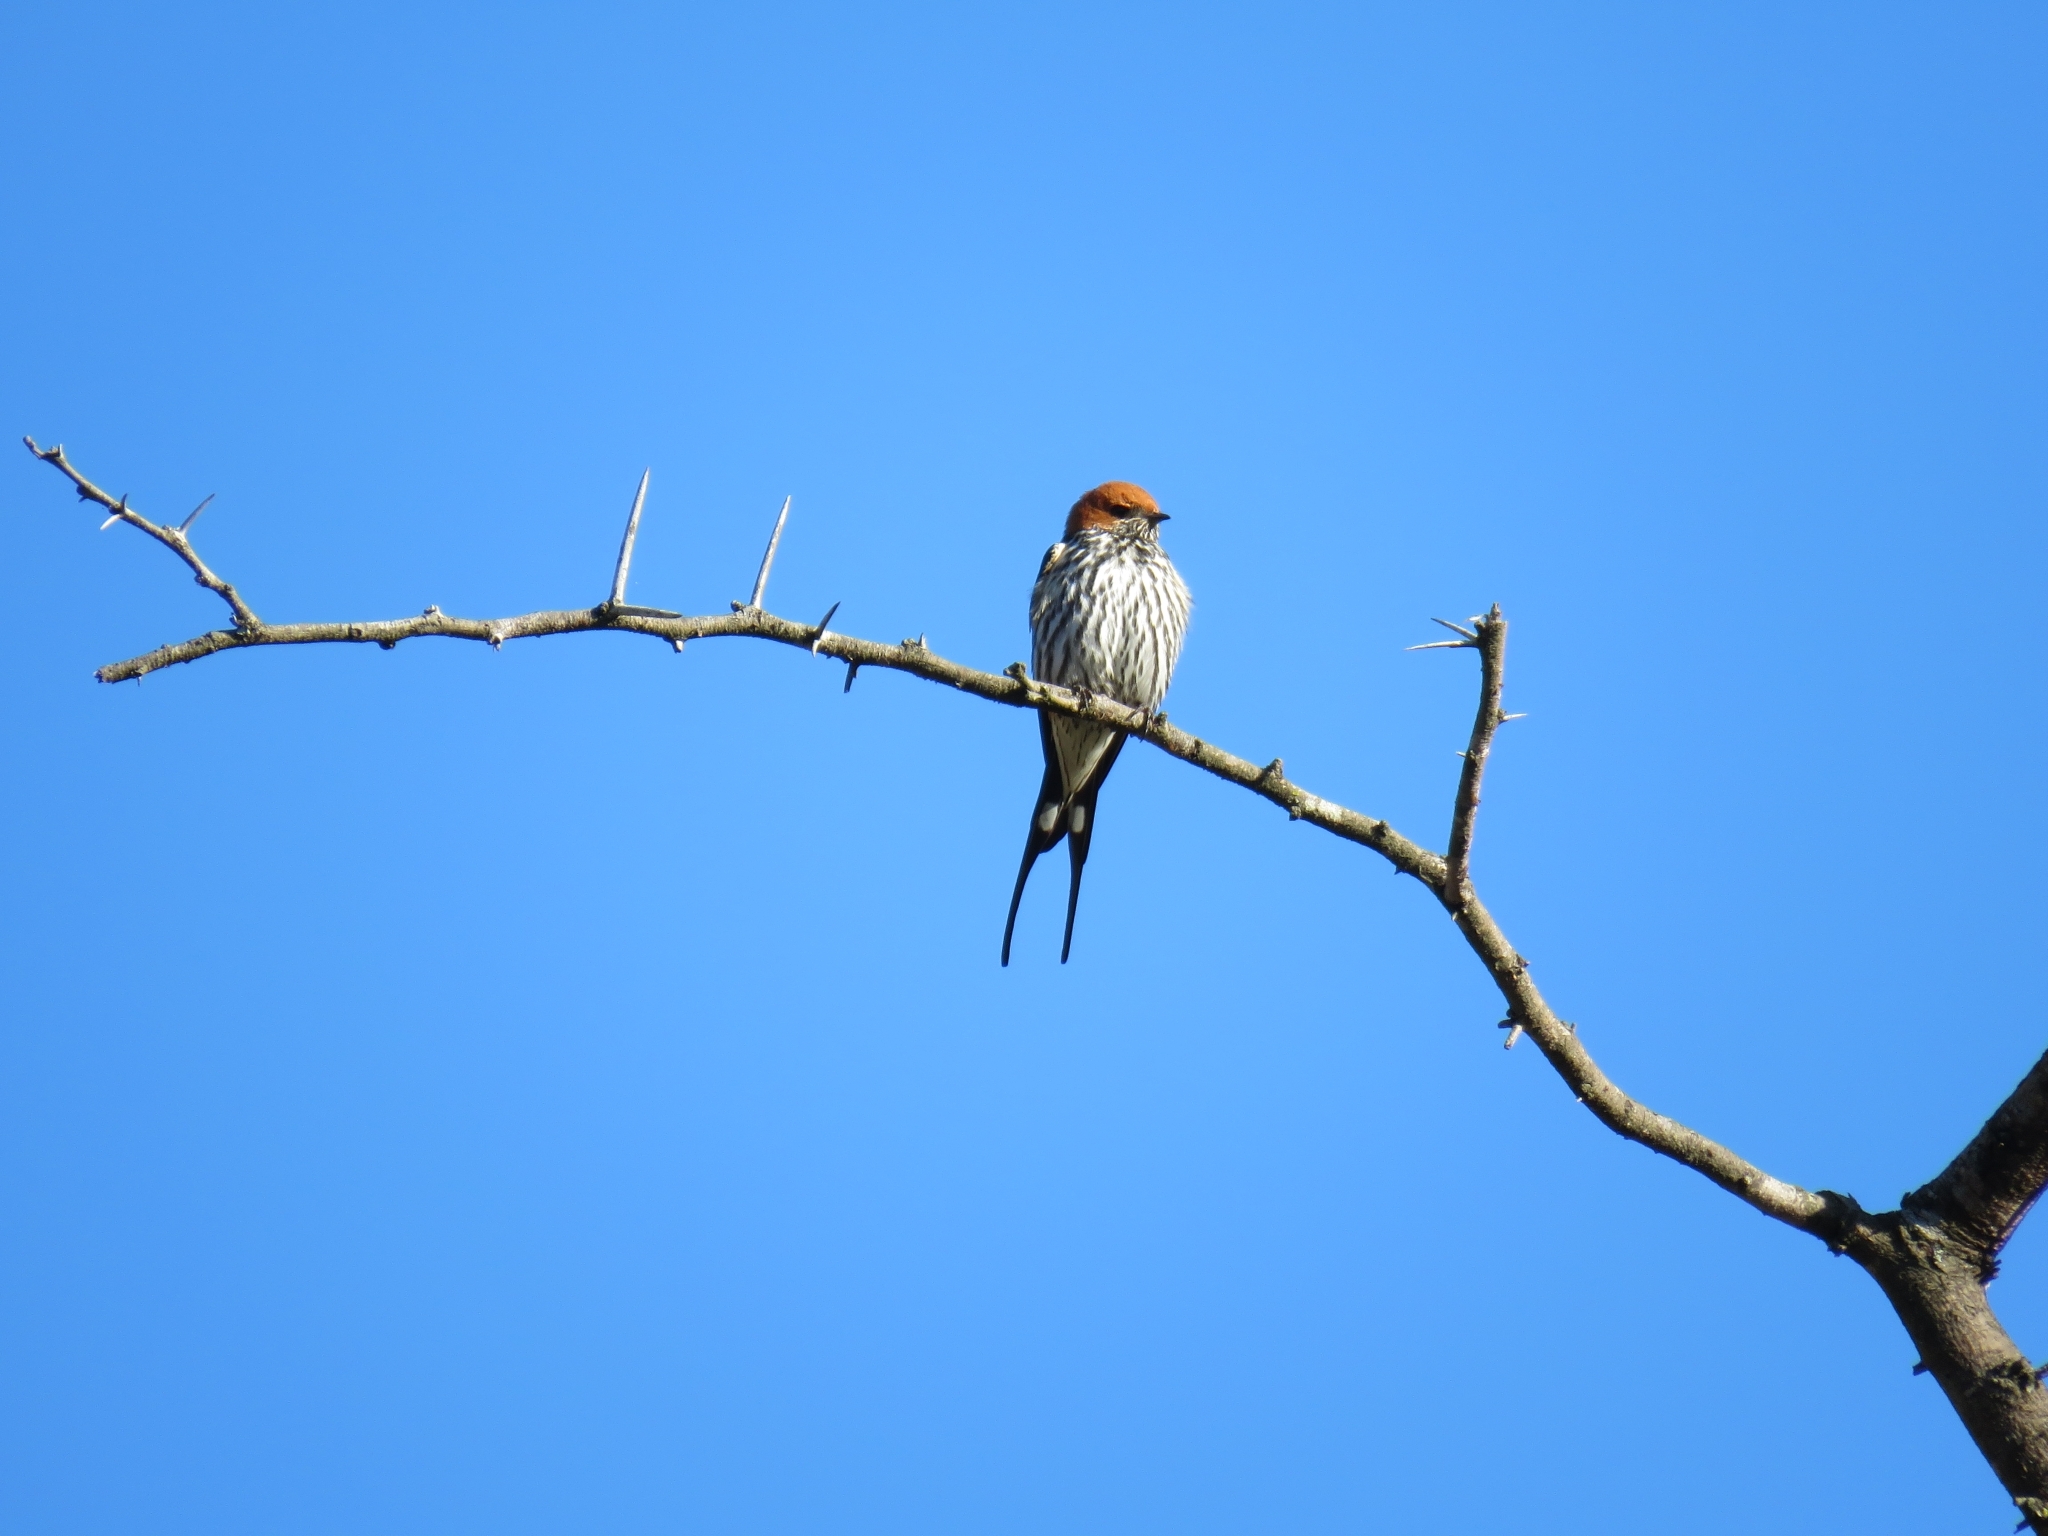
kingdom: Animalia
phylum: Chordata
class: Aves
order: Passeriformes
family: Hirundinidae
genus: Cecropis
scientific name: Cecropis abyssinica
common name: Lesser striped-swallow
